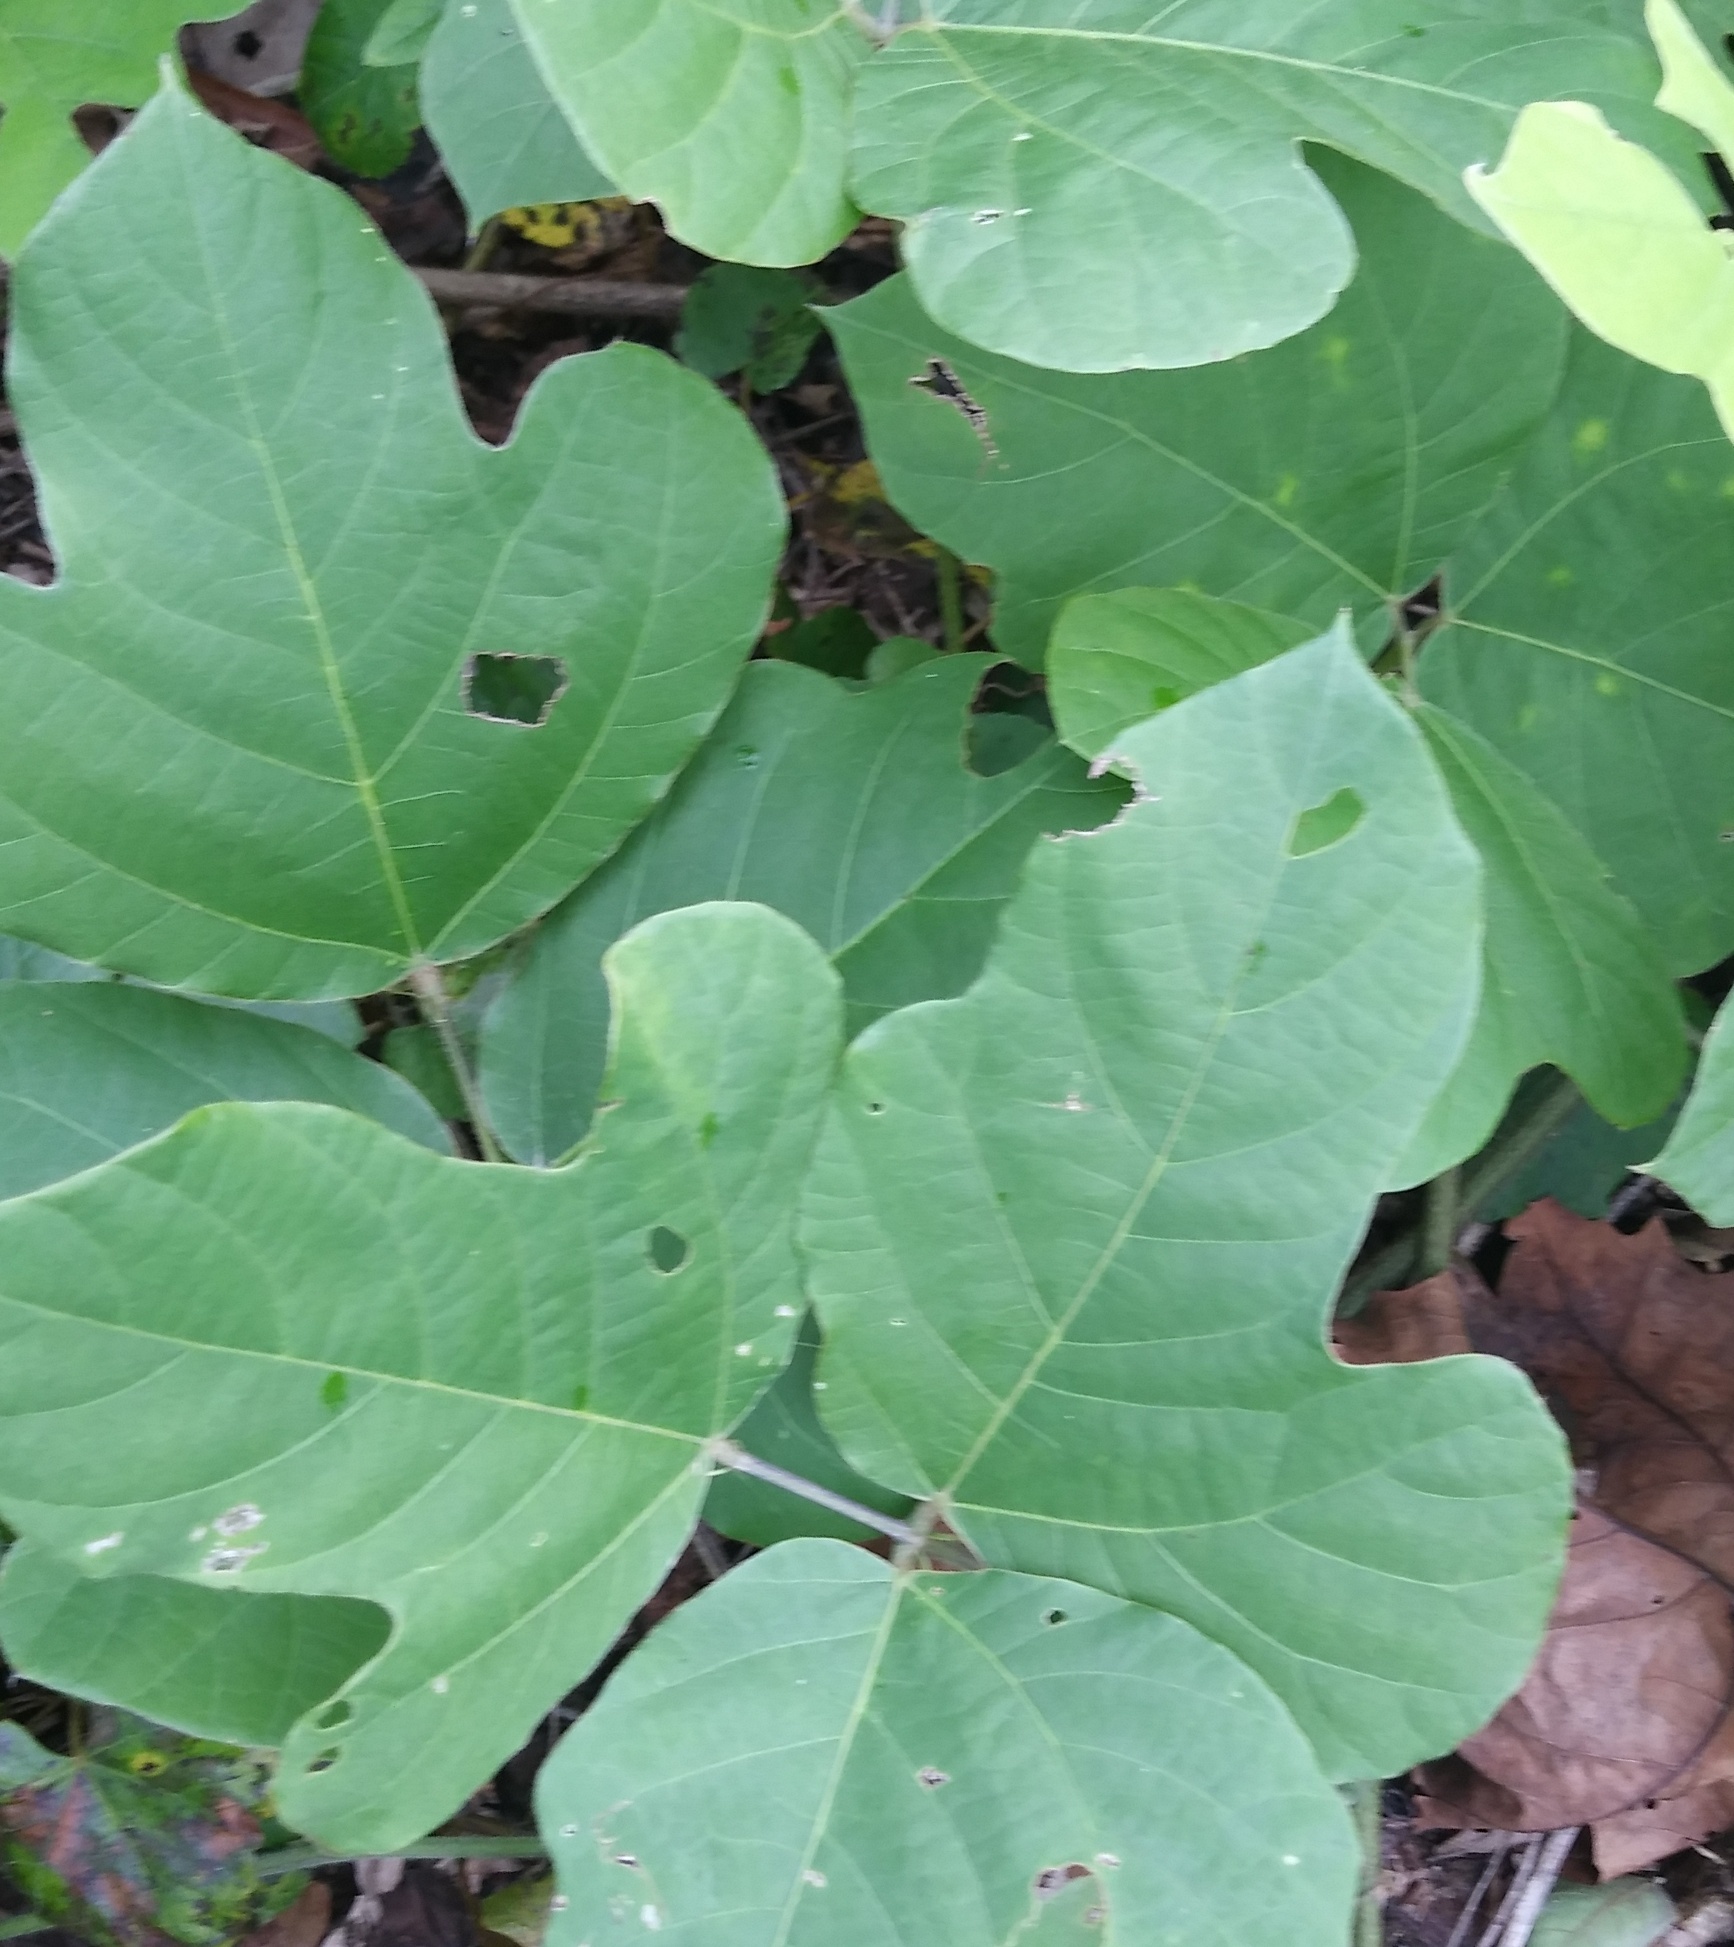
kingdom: Plantae
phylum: Tracheophyta
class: Magnoliopsida
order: Fabales
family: Fabaceae
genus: Pueraria
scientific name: Pueraria montana
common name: Kudzu
